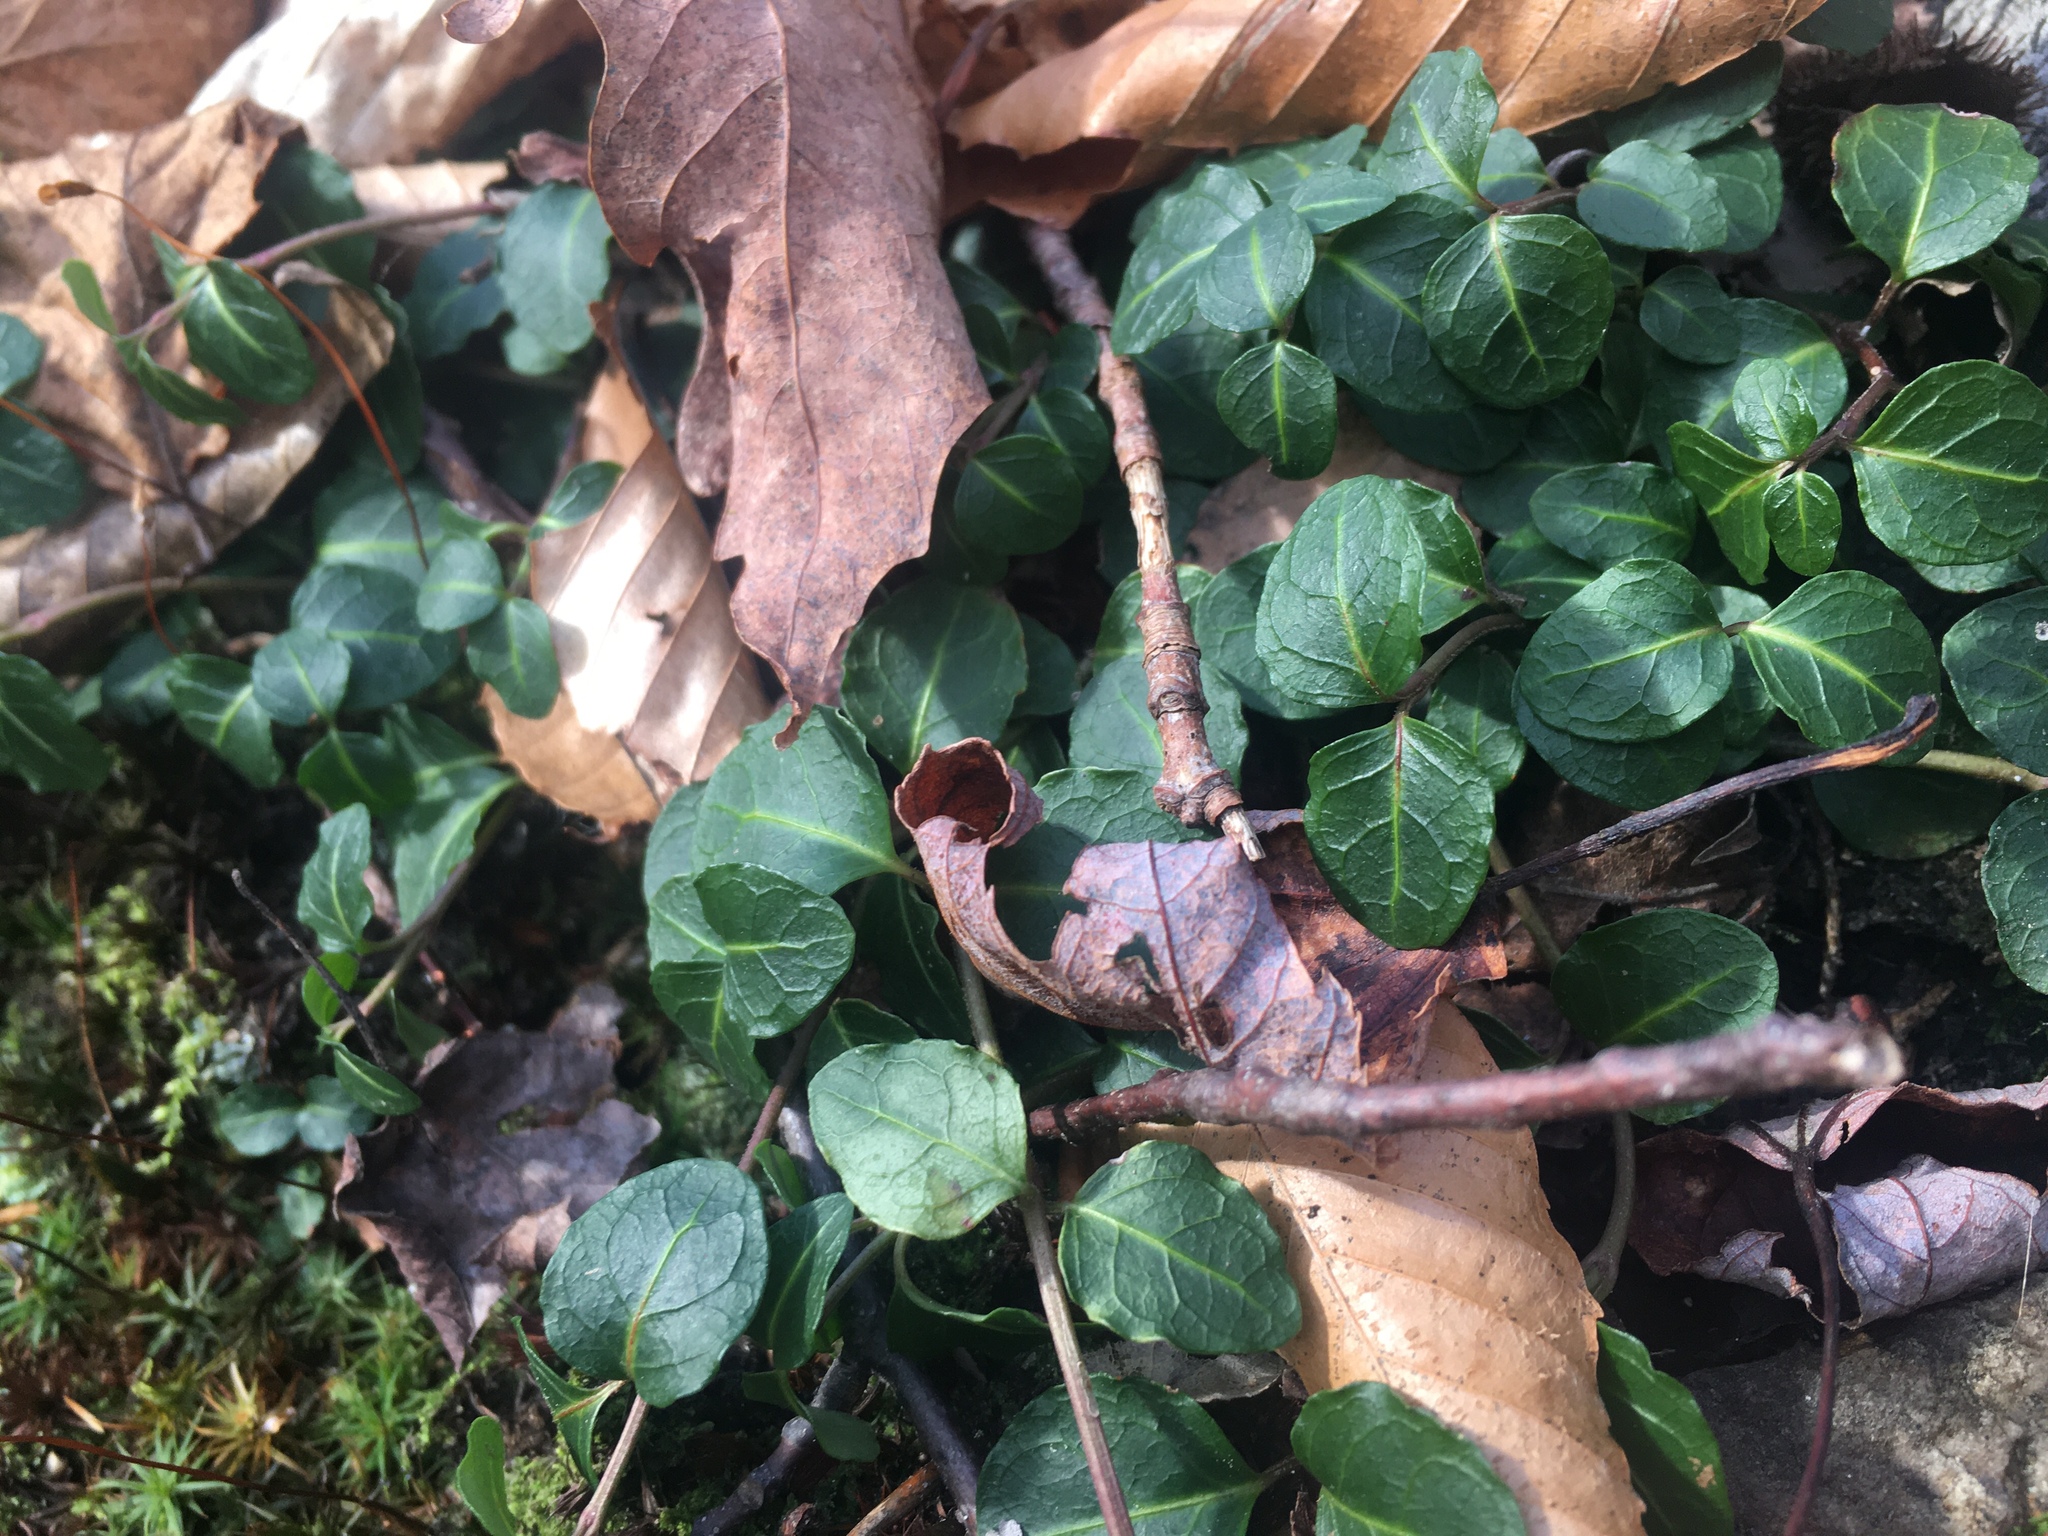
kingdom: Plantae
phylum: Tracheophyta
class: Magnoliopsida
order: Gentianales
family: Rubiaceae
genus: Mitchella
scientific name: Mitchella repens
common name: Partridge-berry
